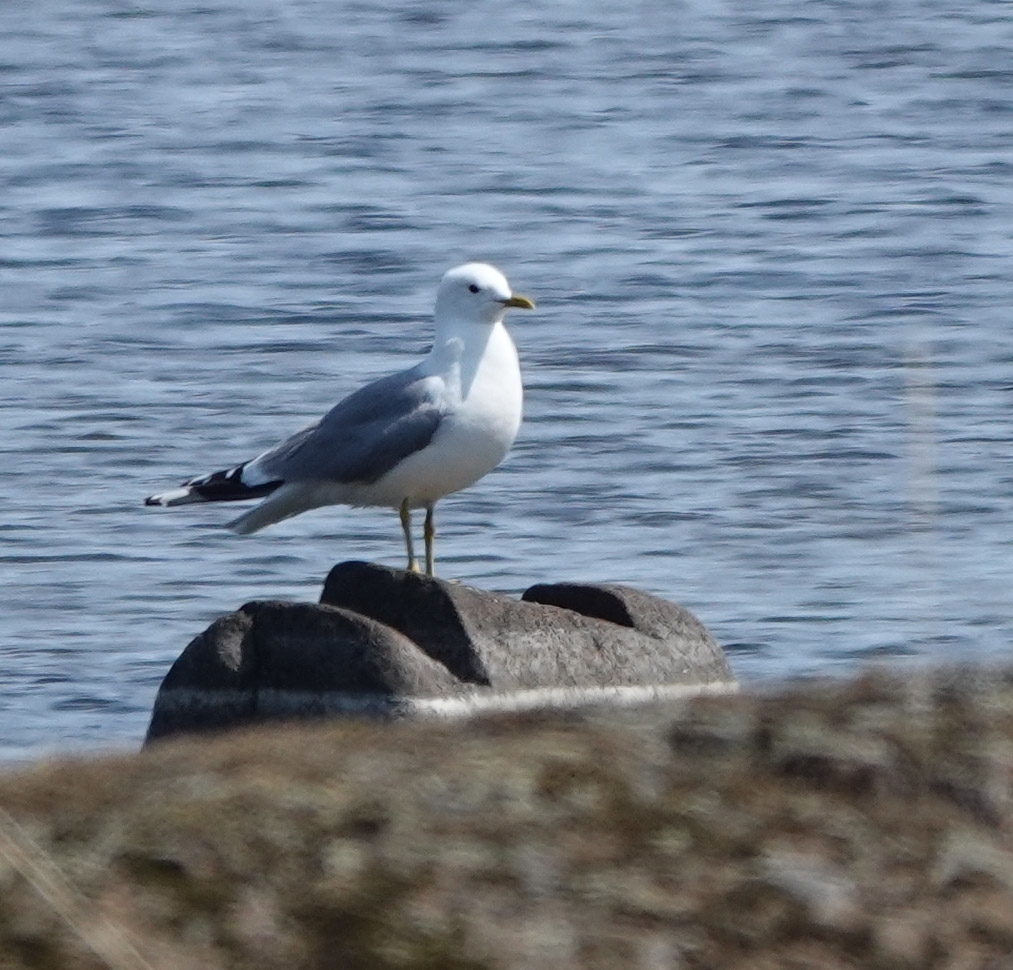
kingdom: Animalia
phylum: Chordata
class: Aves
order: Charadriiformes
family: Laridae
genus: Larus
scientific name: Larus canus
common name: Mew gull
